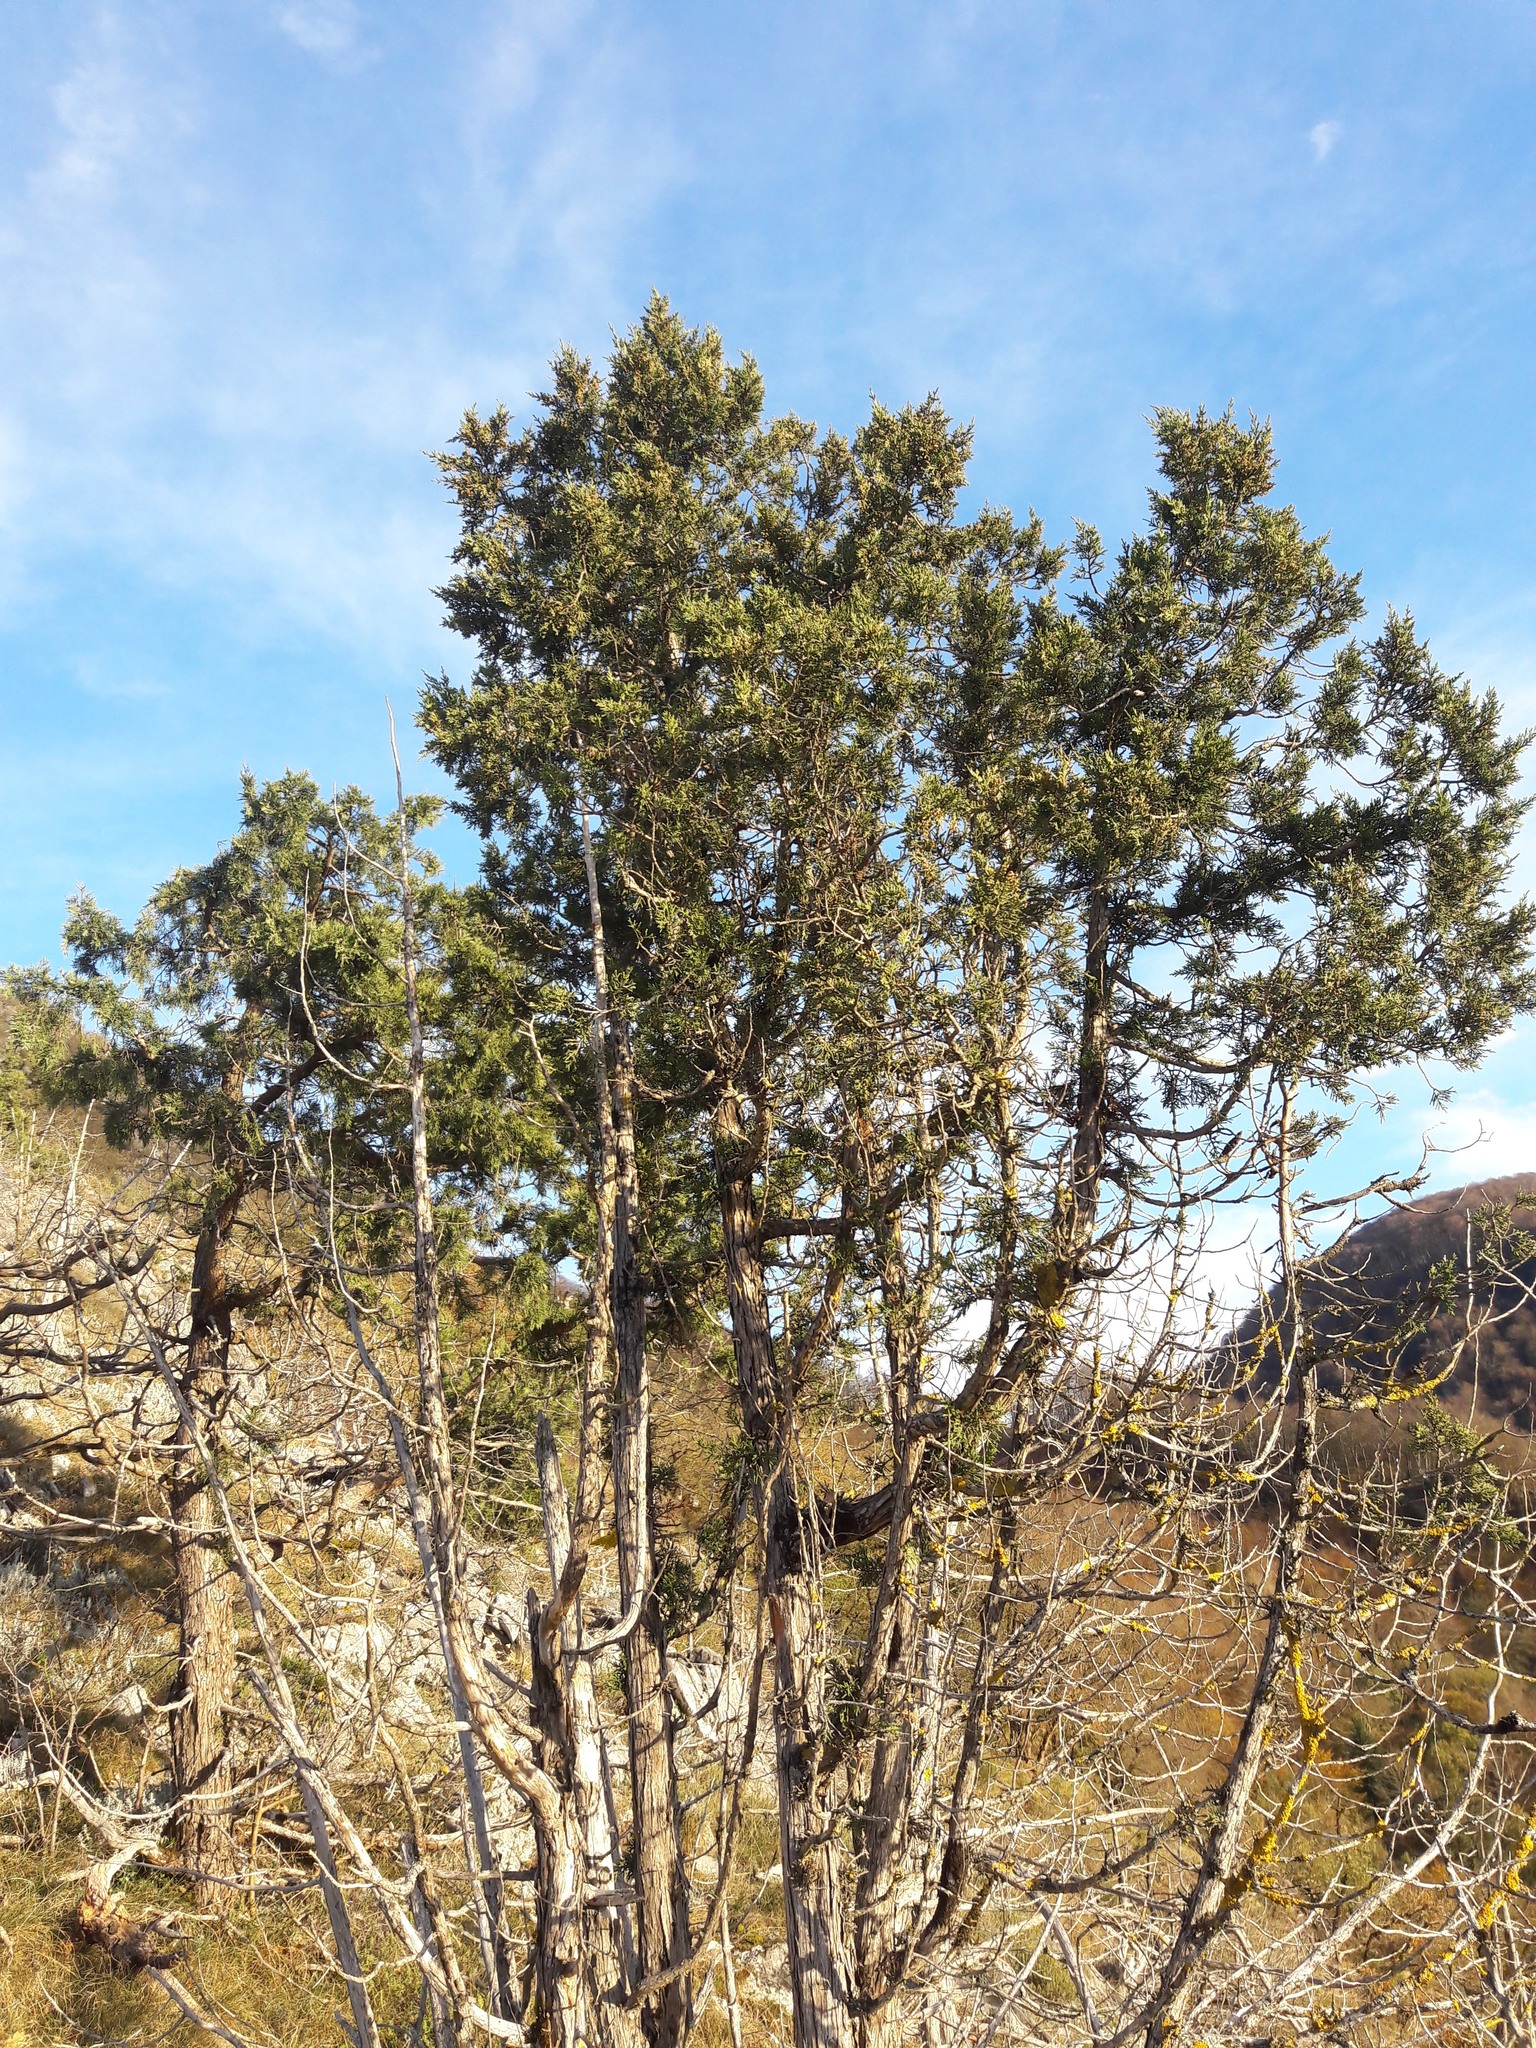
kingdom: Plantae
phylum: Tracheophyta
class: Pinopsida
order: Pinales
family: Cupressaceae
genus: Juniperus
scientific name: Juniperus thurifera
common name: Incense juniper
